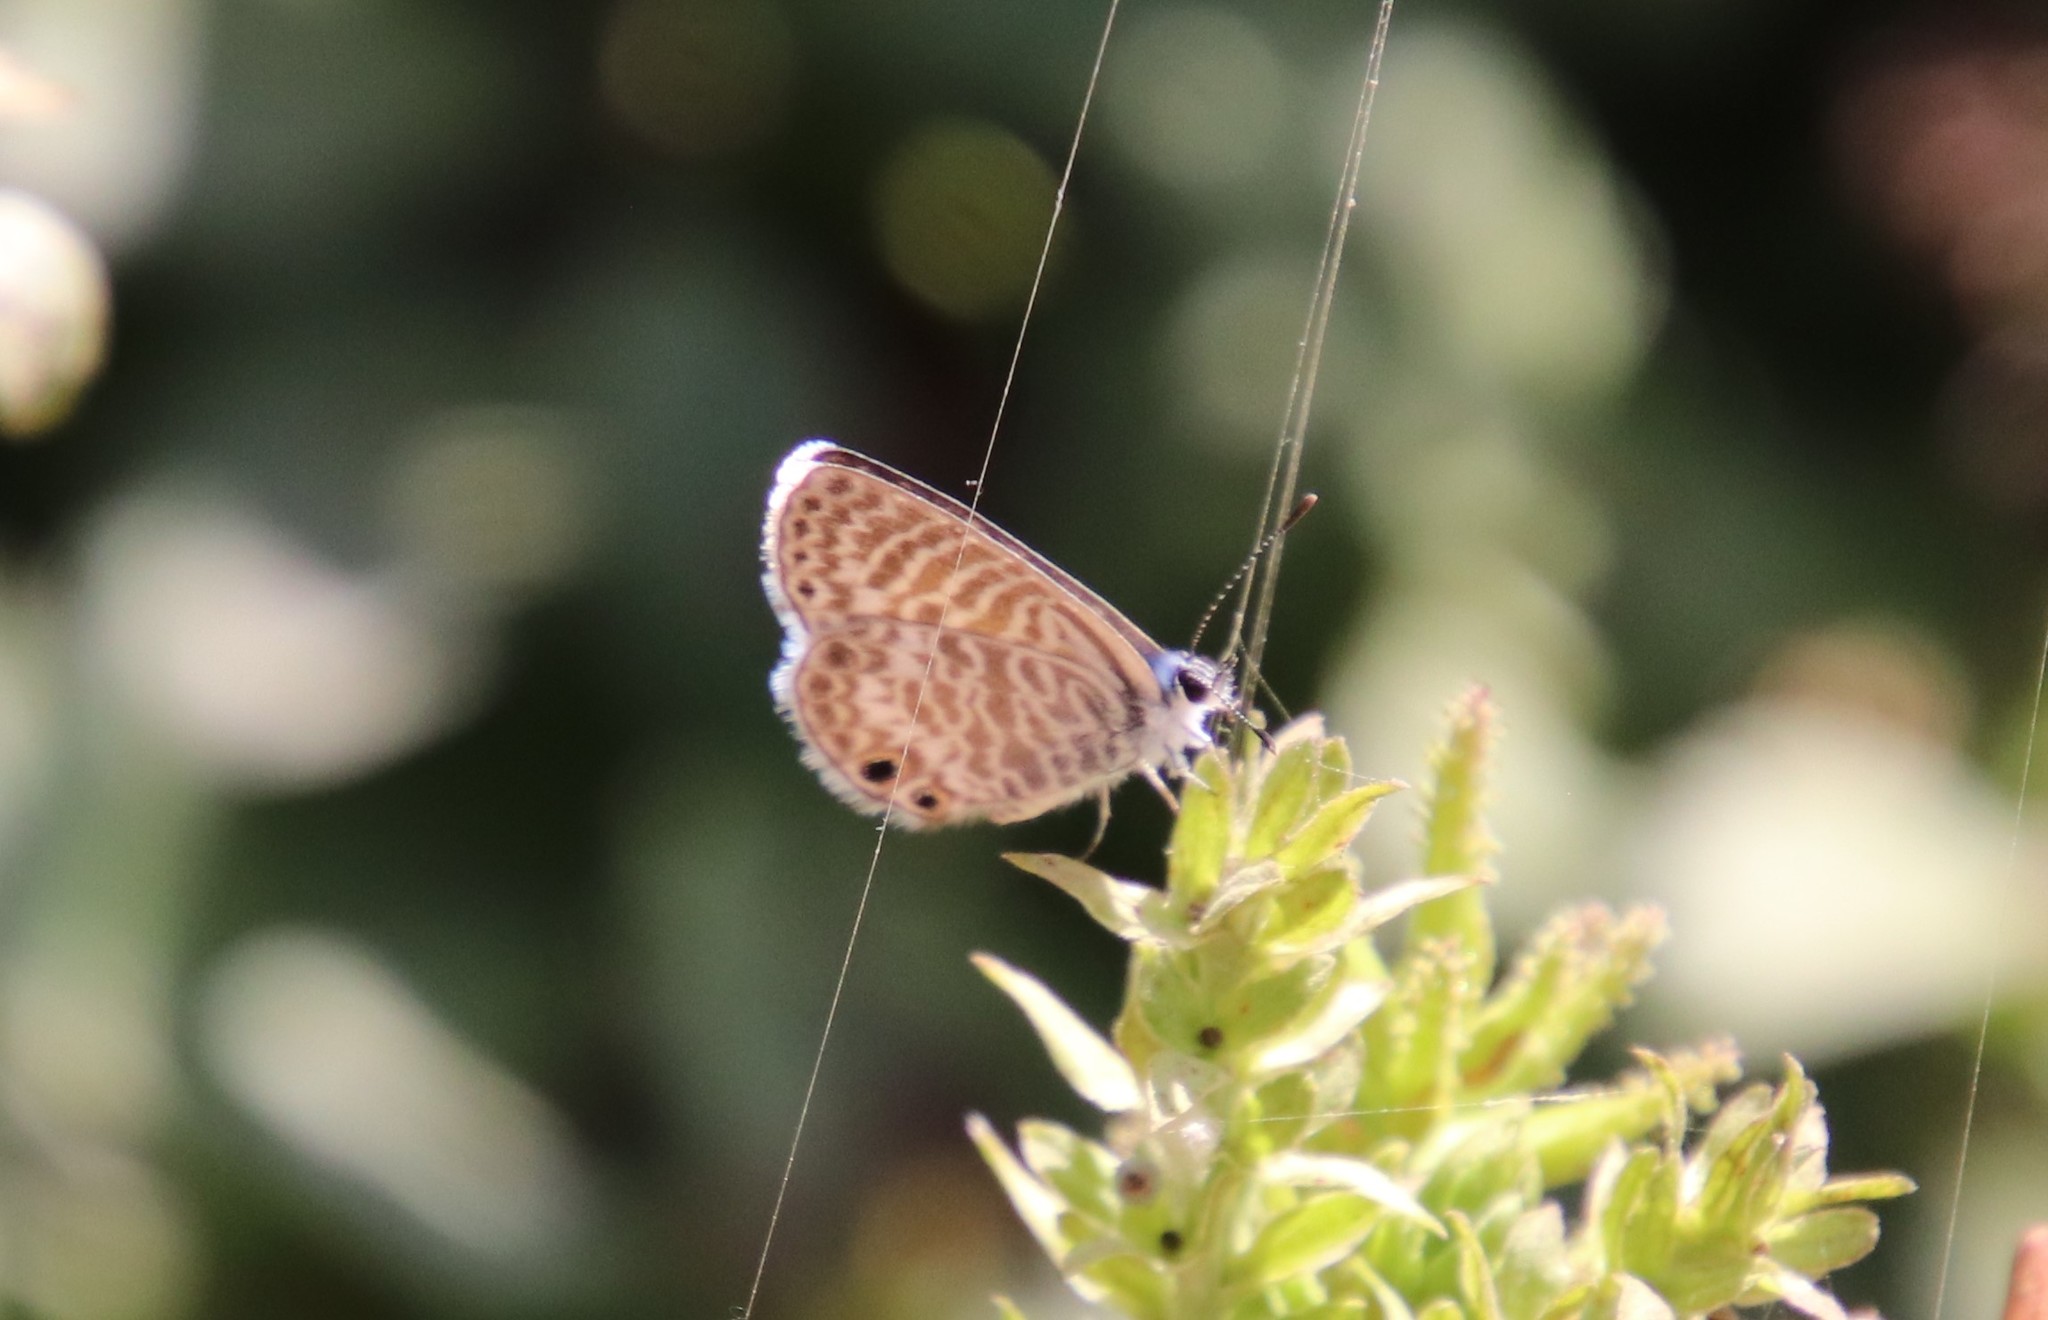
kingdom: Animalia
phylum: Arthropoda
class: Insecta
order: Lepidoptera
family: Lycaenidae
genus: Leptotes
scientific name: Leptotes marina
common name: Marine blue
